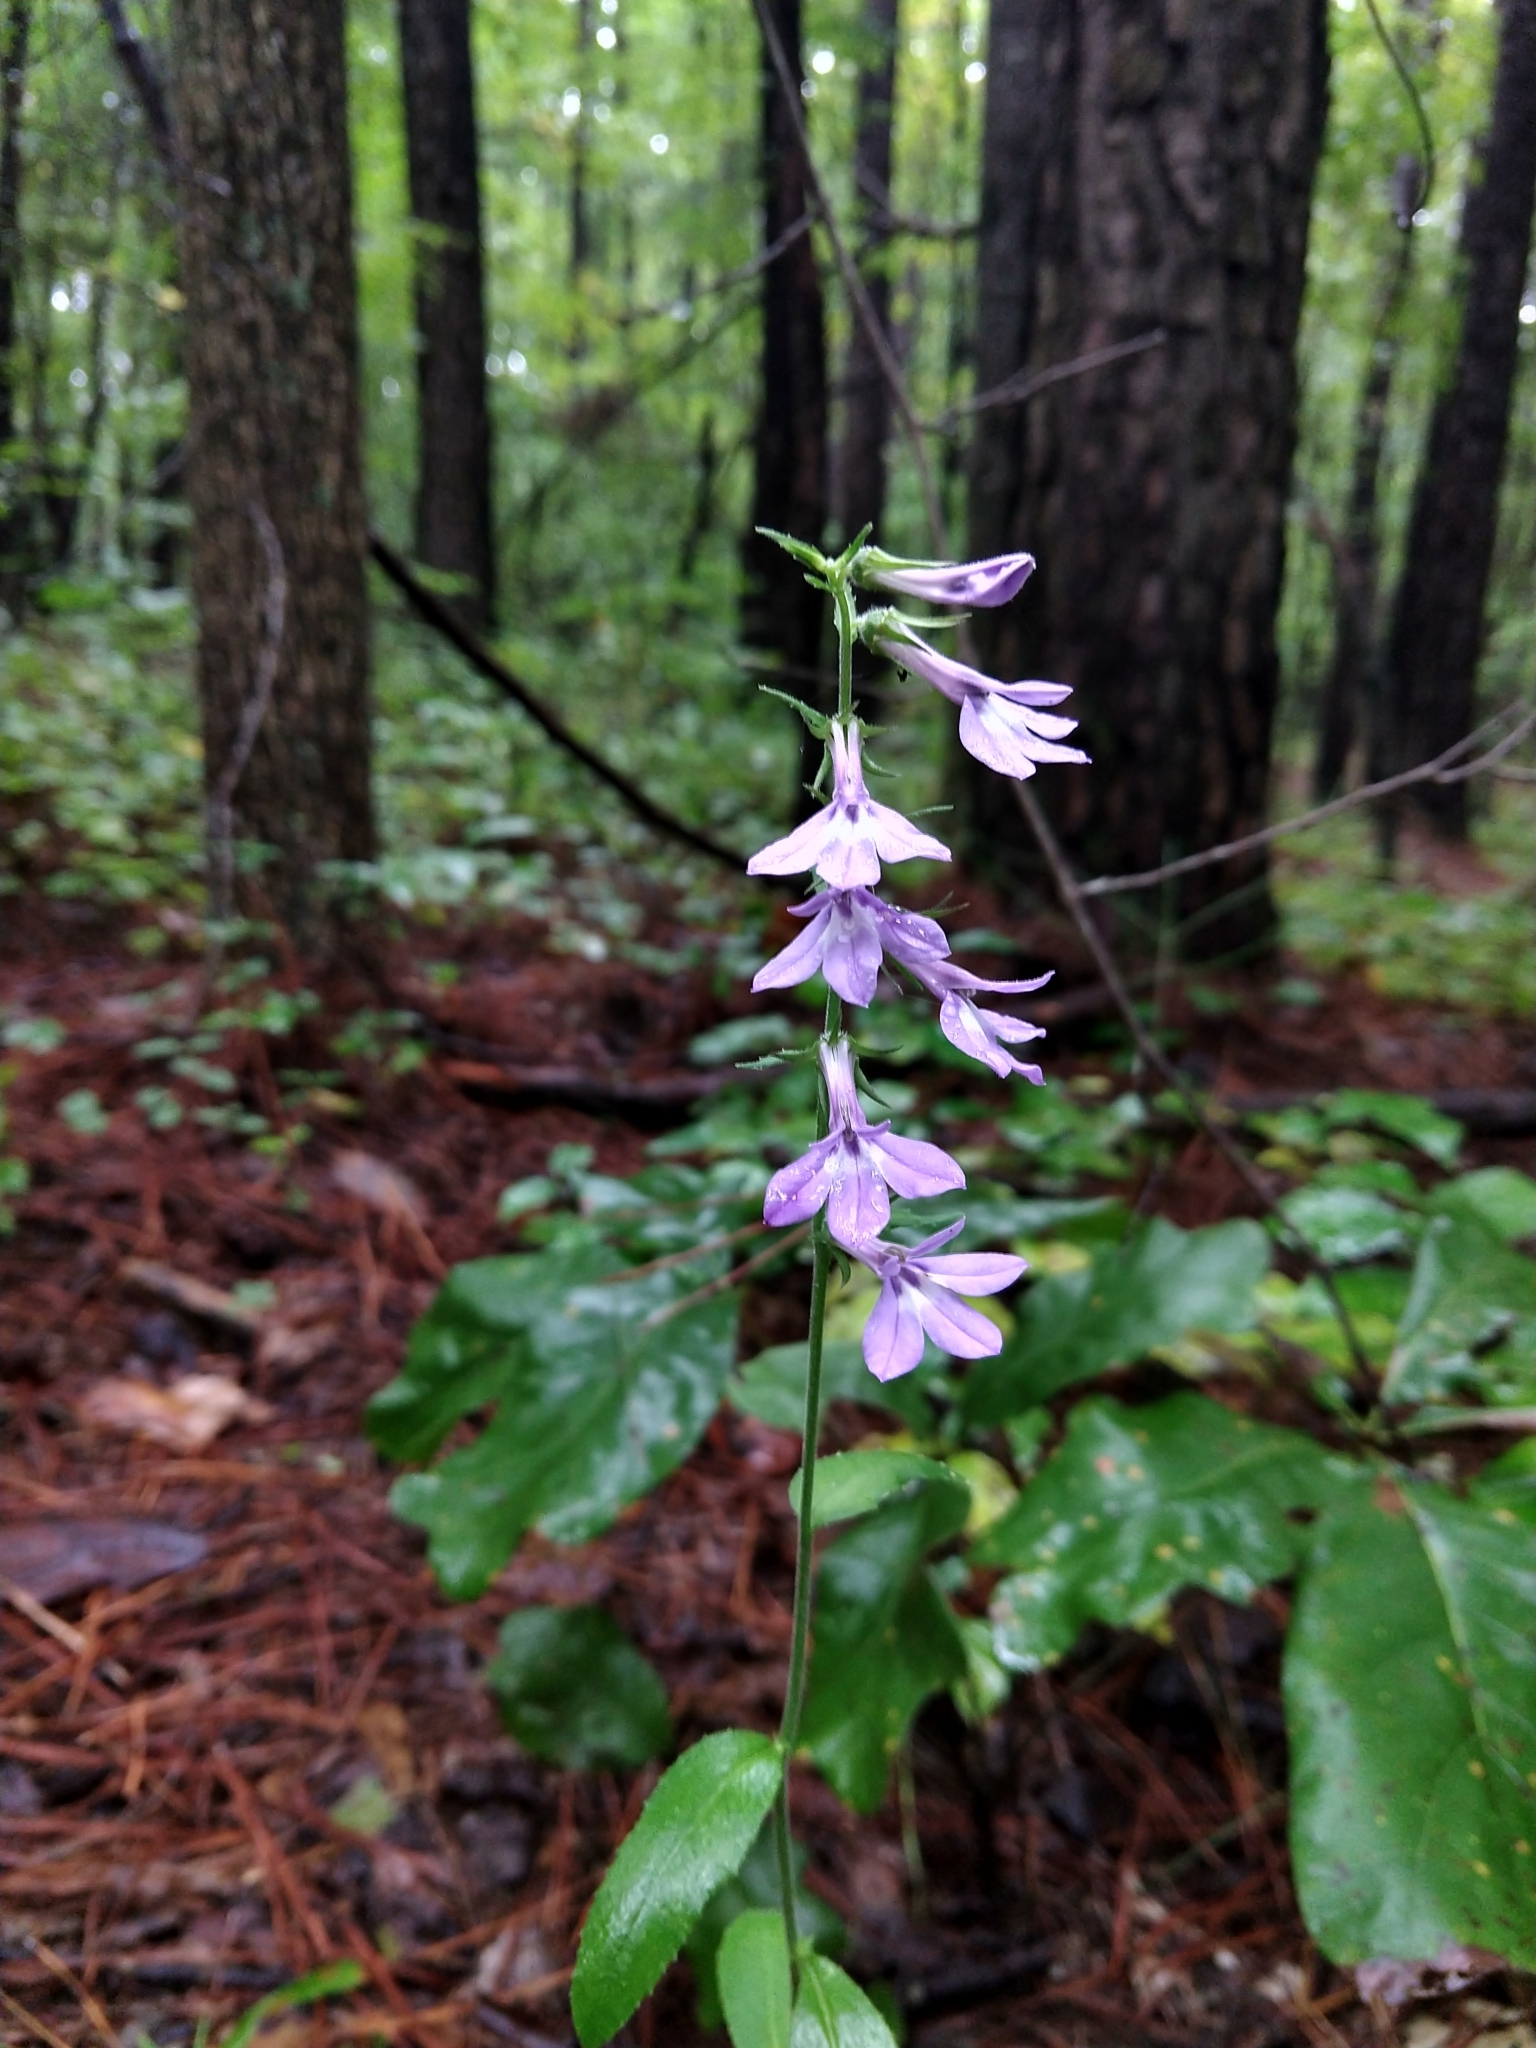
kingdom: Plantae
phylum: Tracheophyta
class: Magnoliopsida
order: Asterales
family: Campanulaceae
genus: Lobelia
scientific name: Lobelia puberula
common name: Purple dewdrop
